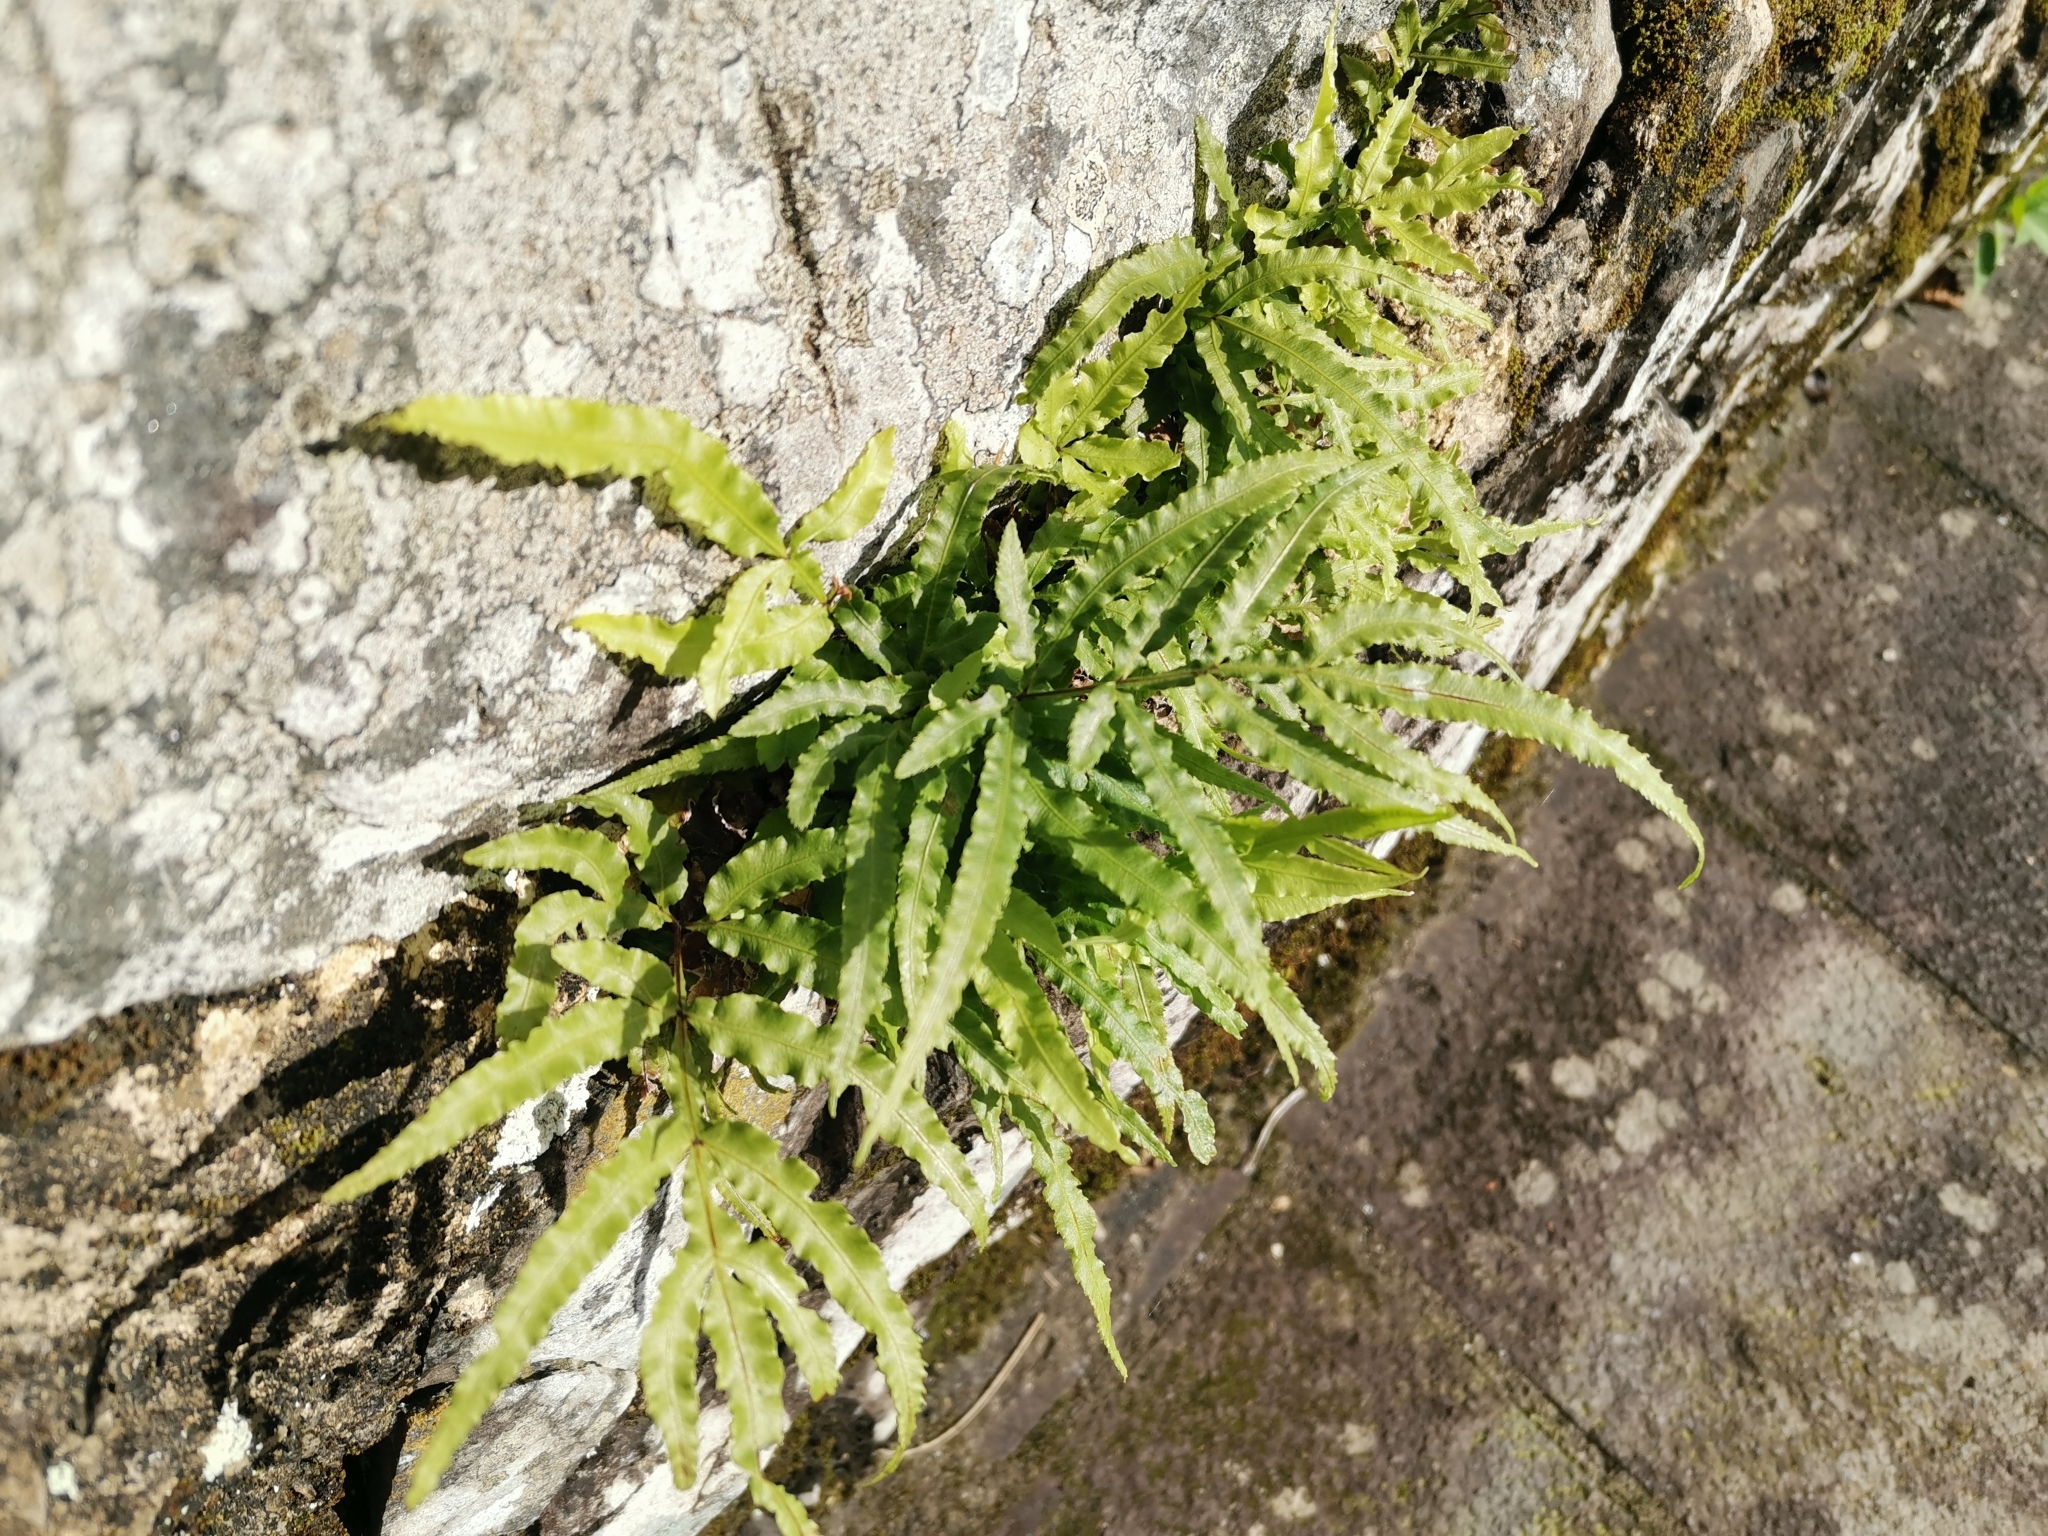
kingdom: Plantae
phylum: Tracheophyta
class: Polypodiopsida
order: Polypodiales
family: Pteridaceae
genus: Pteris
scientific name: Pteris multifida
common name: Spider brake
